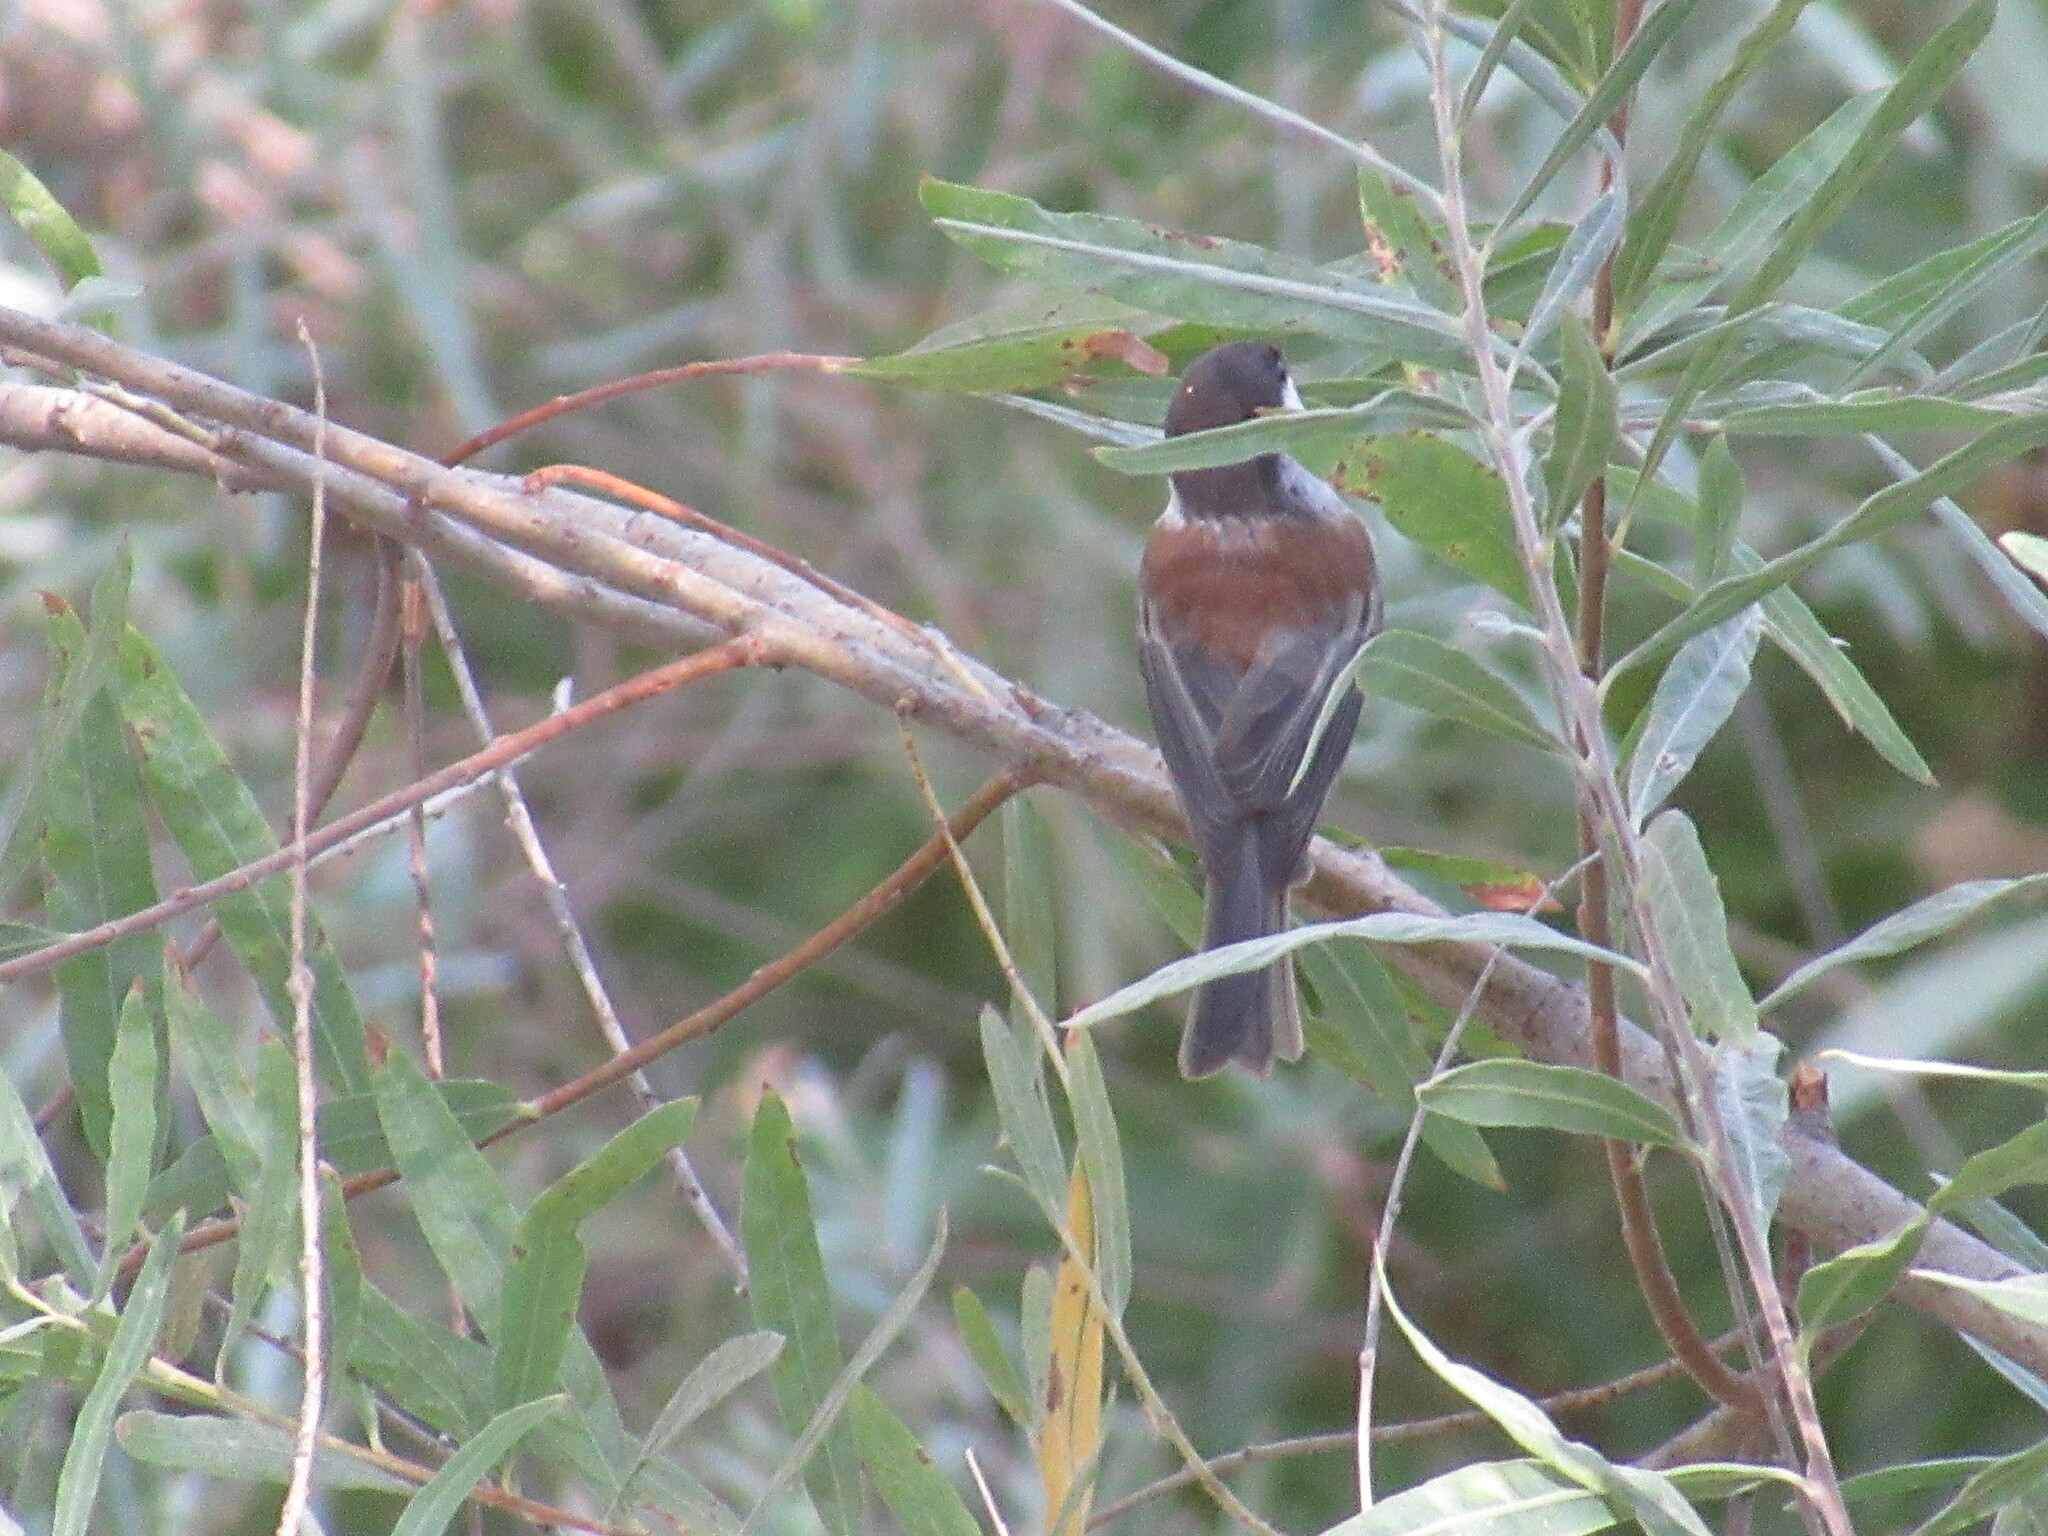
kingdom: Animalia
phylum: Chordata
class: Aves
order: Passeriformes
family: Paridae
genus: Poecile
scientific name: Poecile rufescens
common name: Chestnut-backed chickadee
